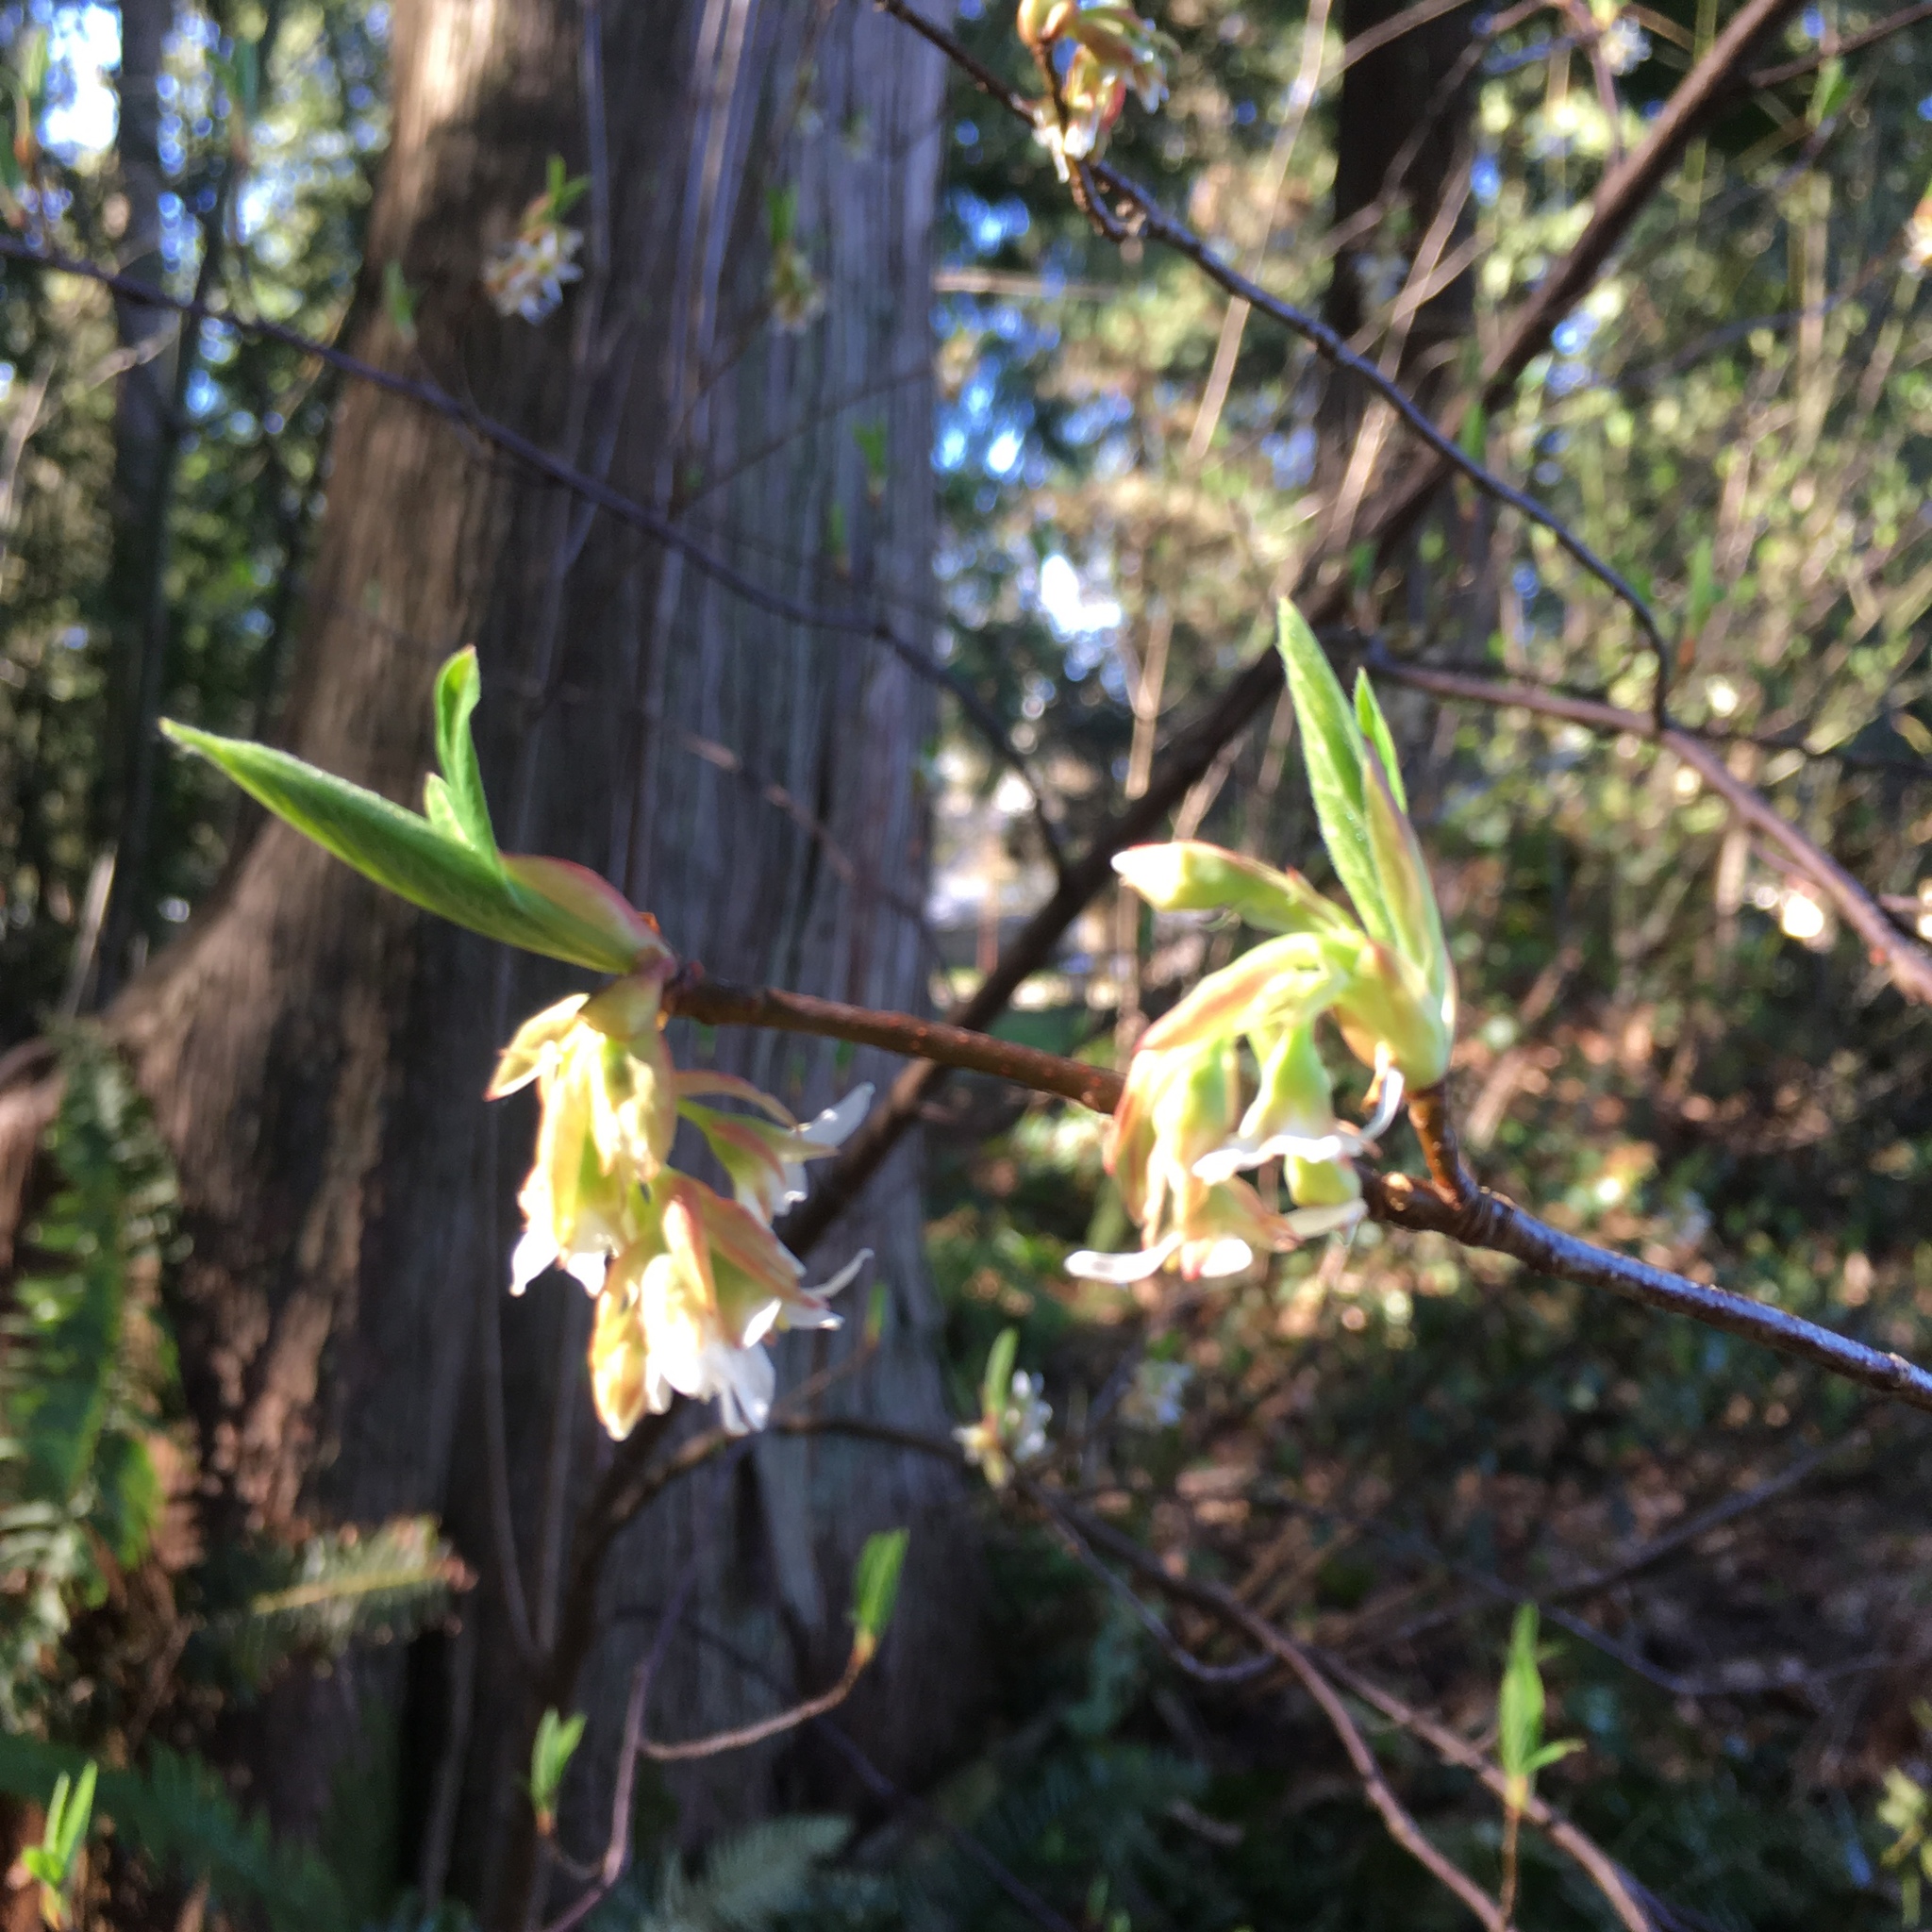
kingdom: Plantae
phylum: Tracheophyta
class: Magnoliopsida
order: Rosales
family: Rosaceae
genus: Oemleria
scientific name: Oemleria cerasiformis
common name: Osoberry
